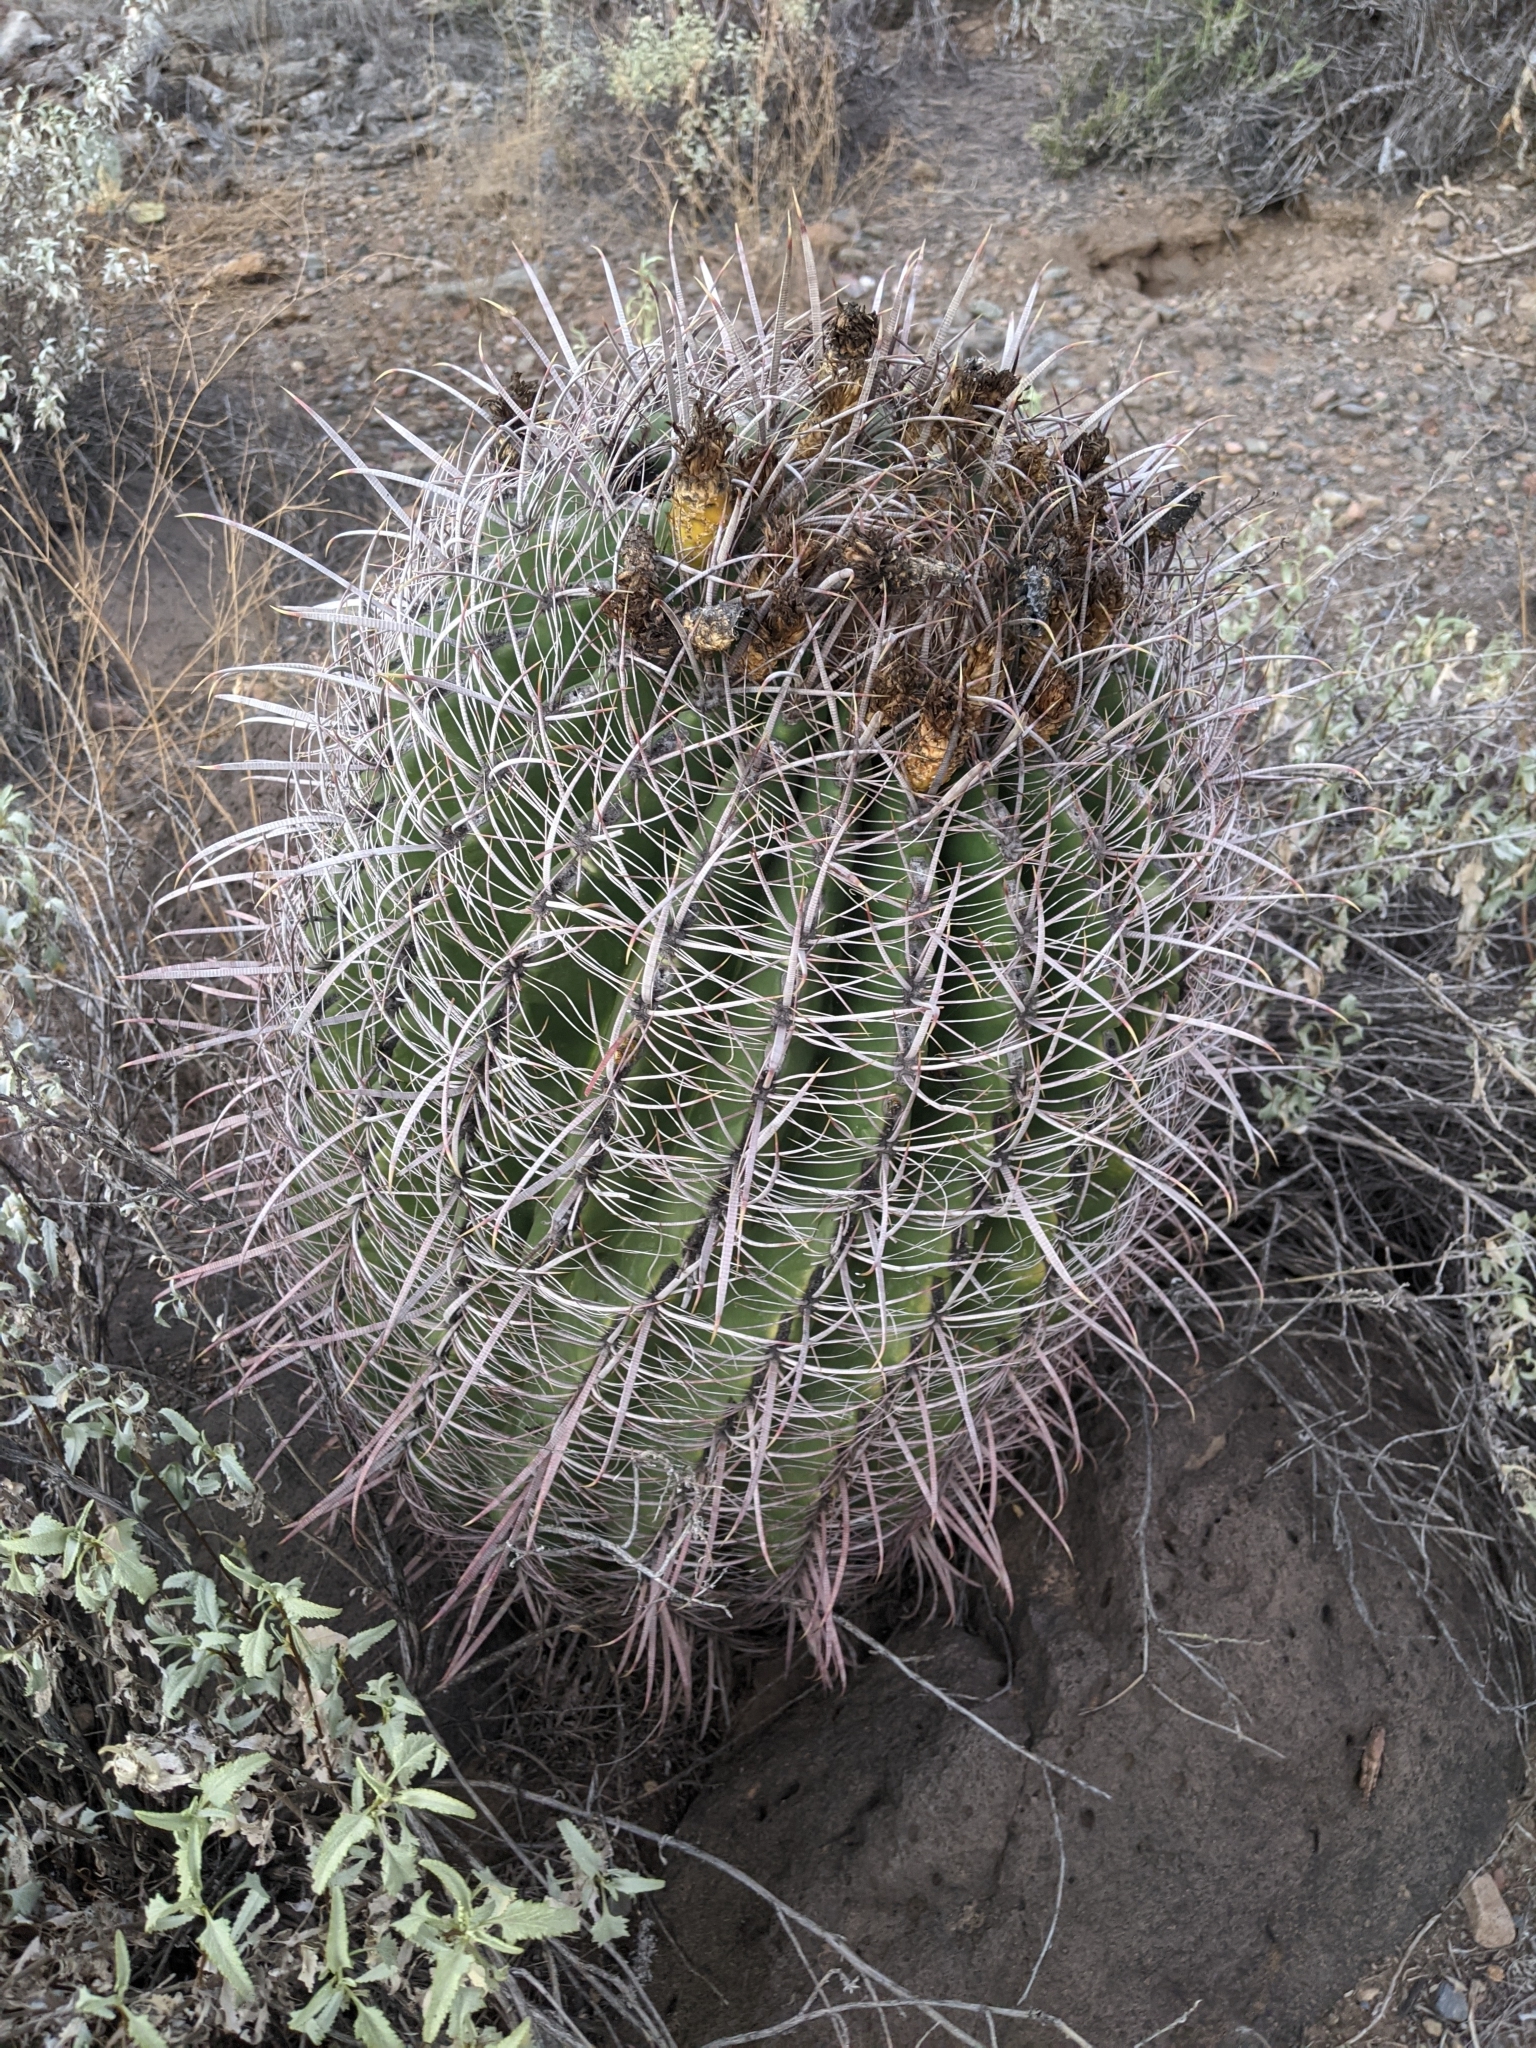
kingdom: Plantae
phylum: Tracheophyta
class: Magnoliopsida
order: Caryophyllales
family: Cactaceae
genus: Ferocactus
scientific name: Ferocactus cylindraceus
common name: California barrel cactus
